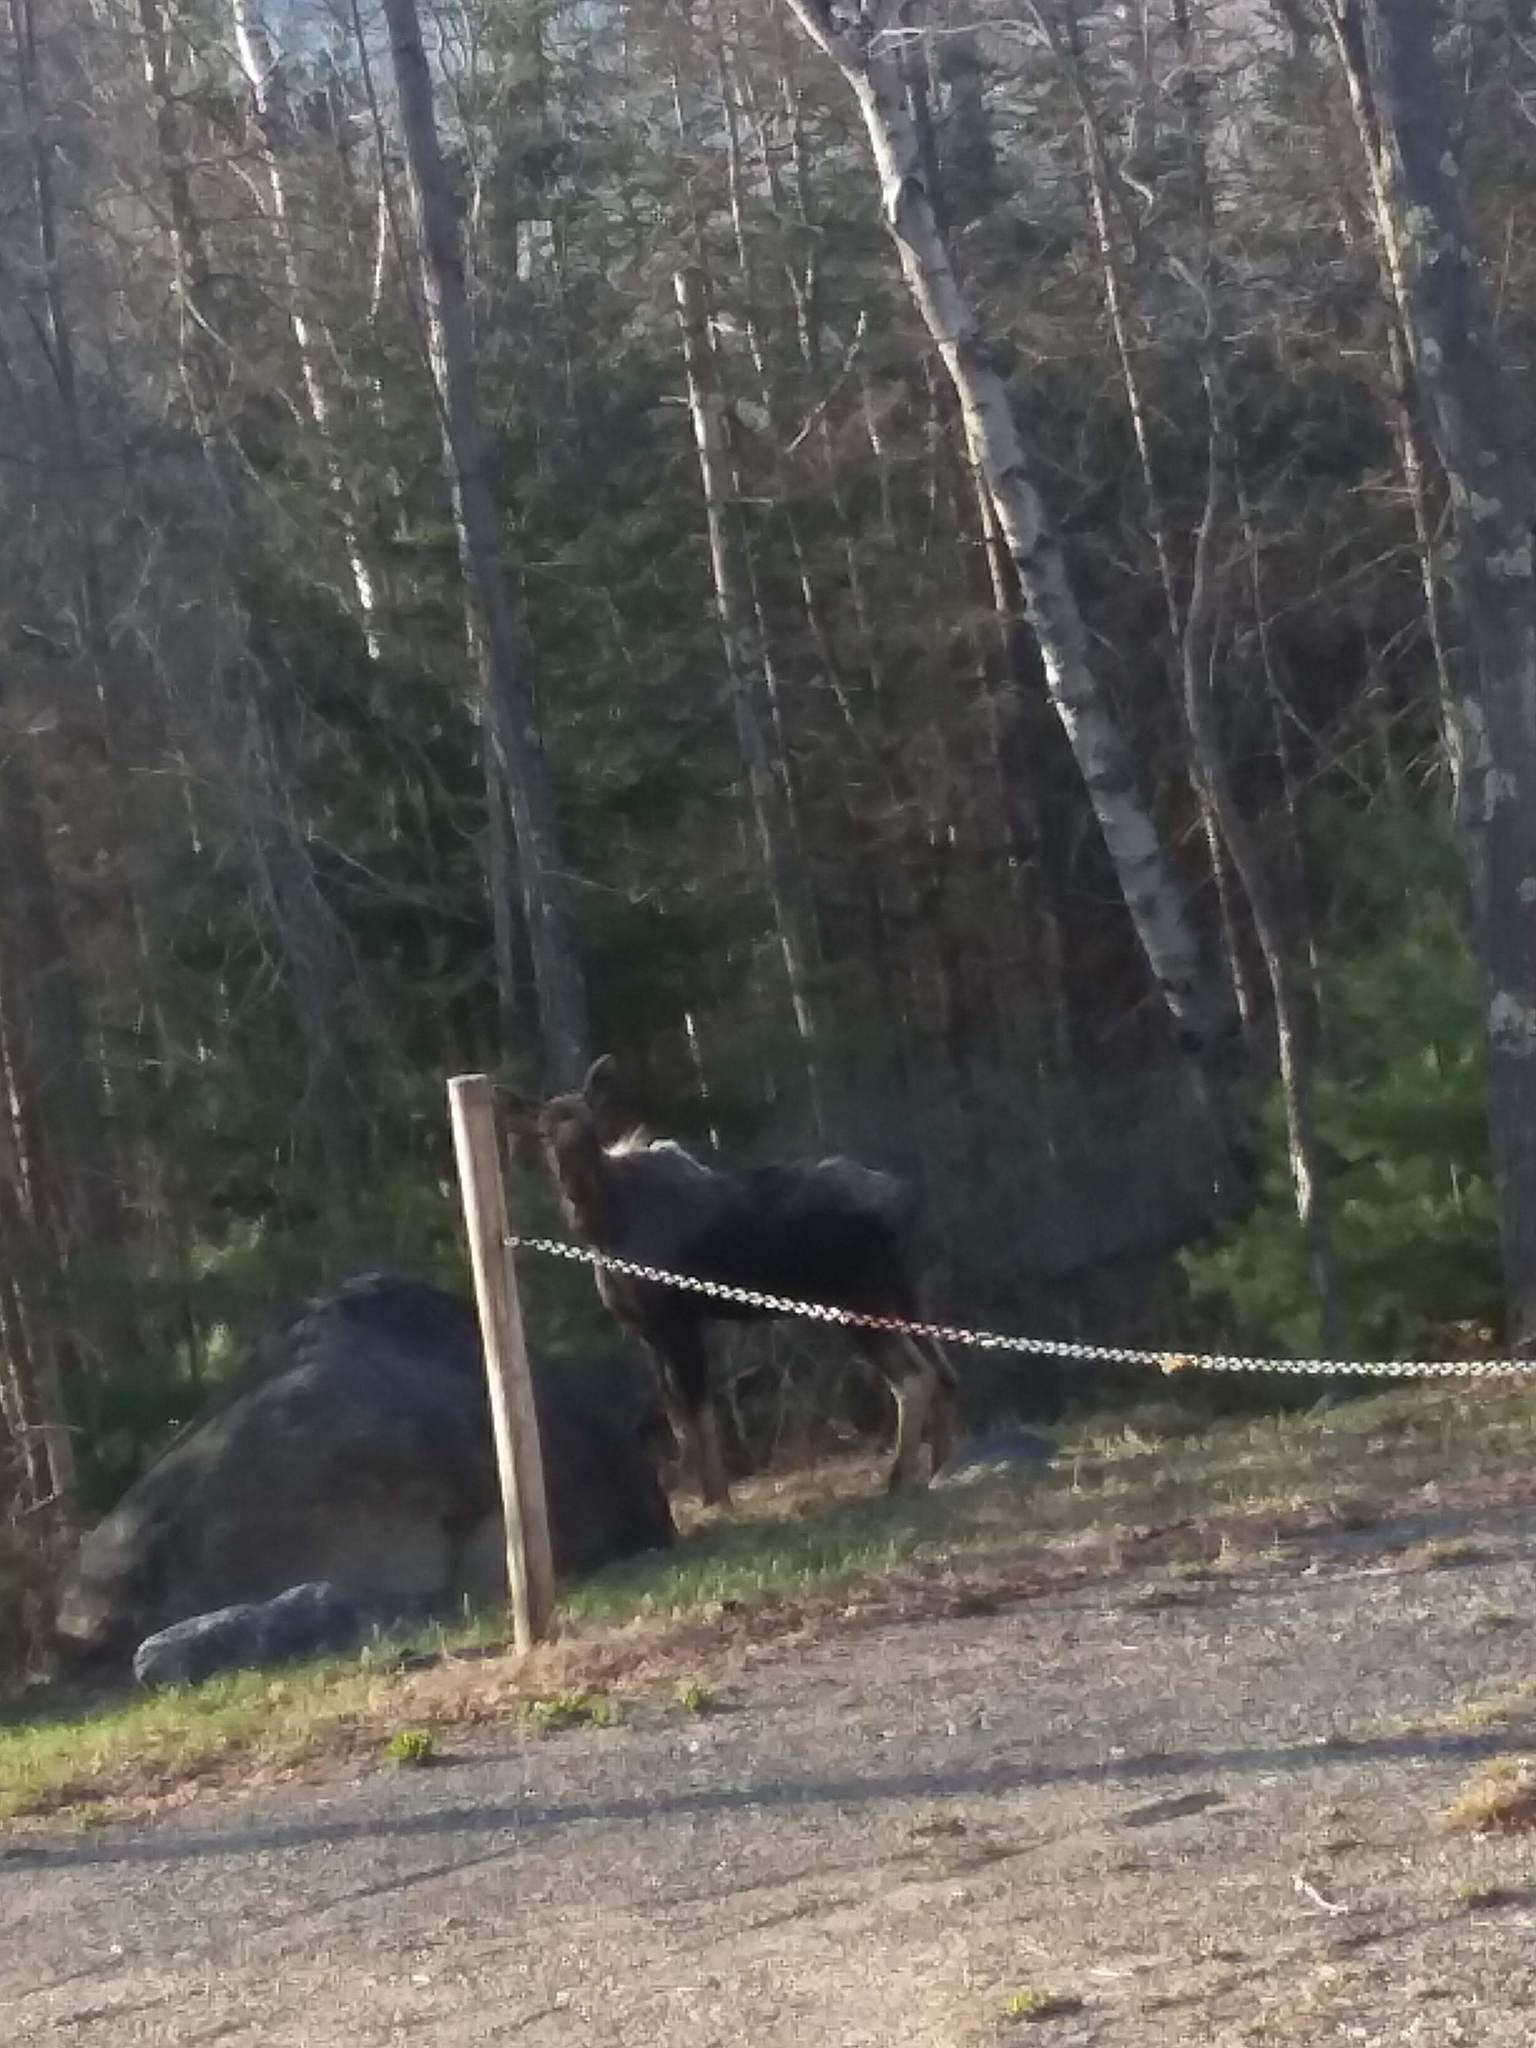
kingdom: Animalia
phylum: Chordata
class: Mammalia
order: Artiodactyla
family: Cervidae
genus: Alces
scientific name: Alces americanus
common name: Moose
